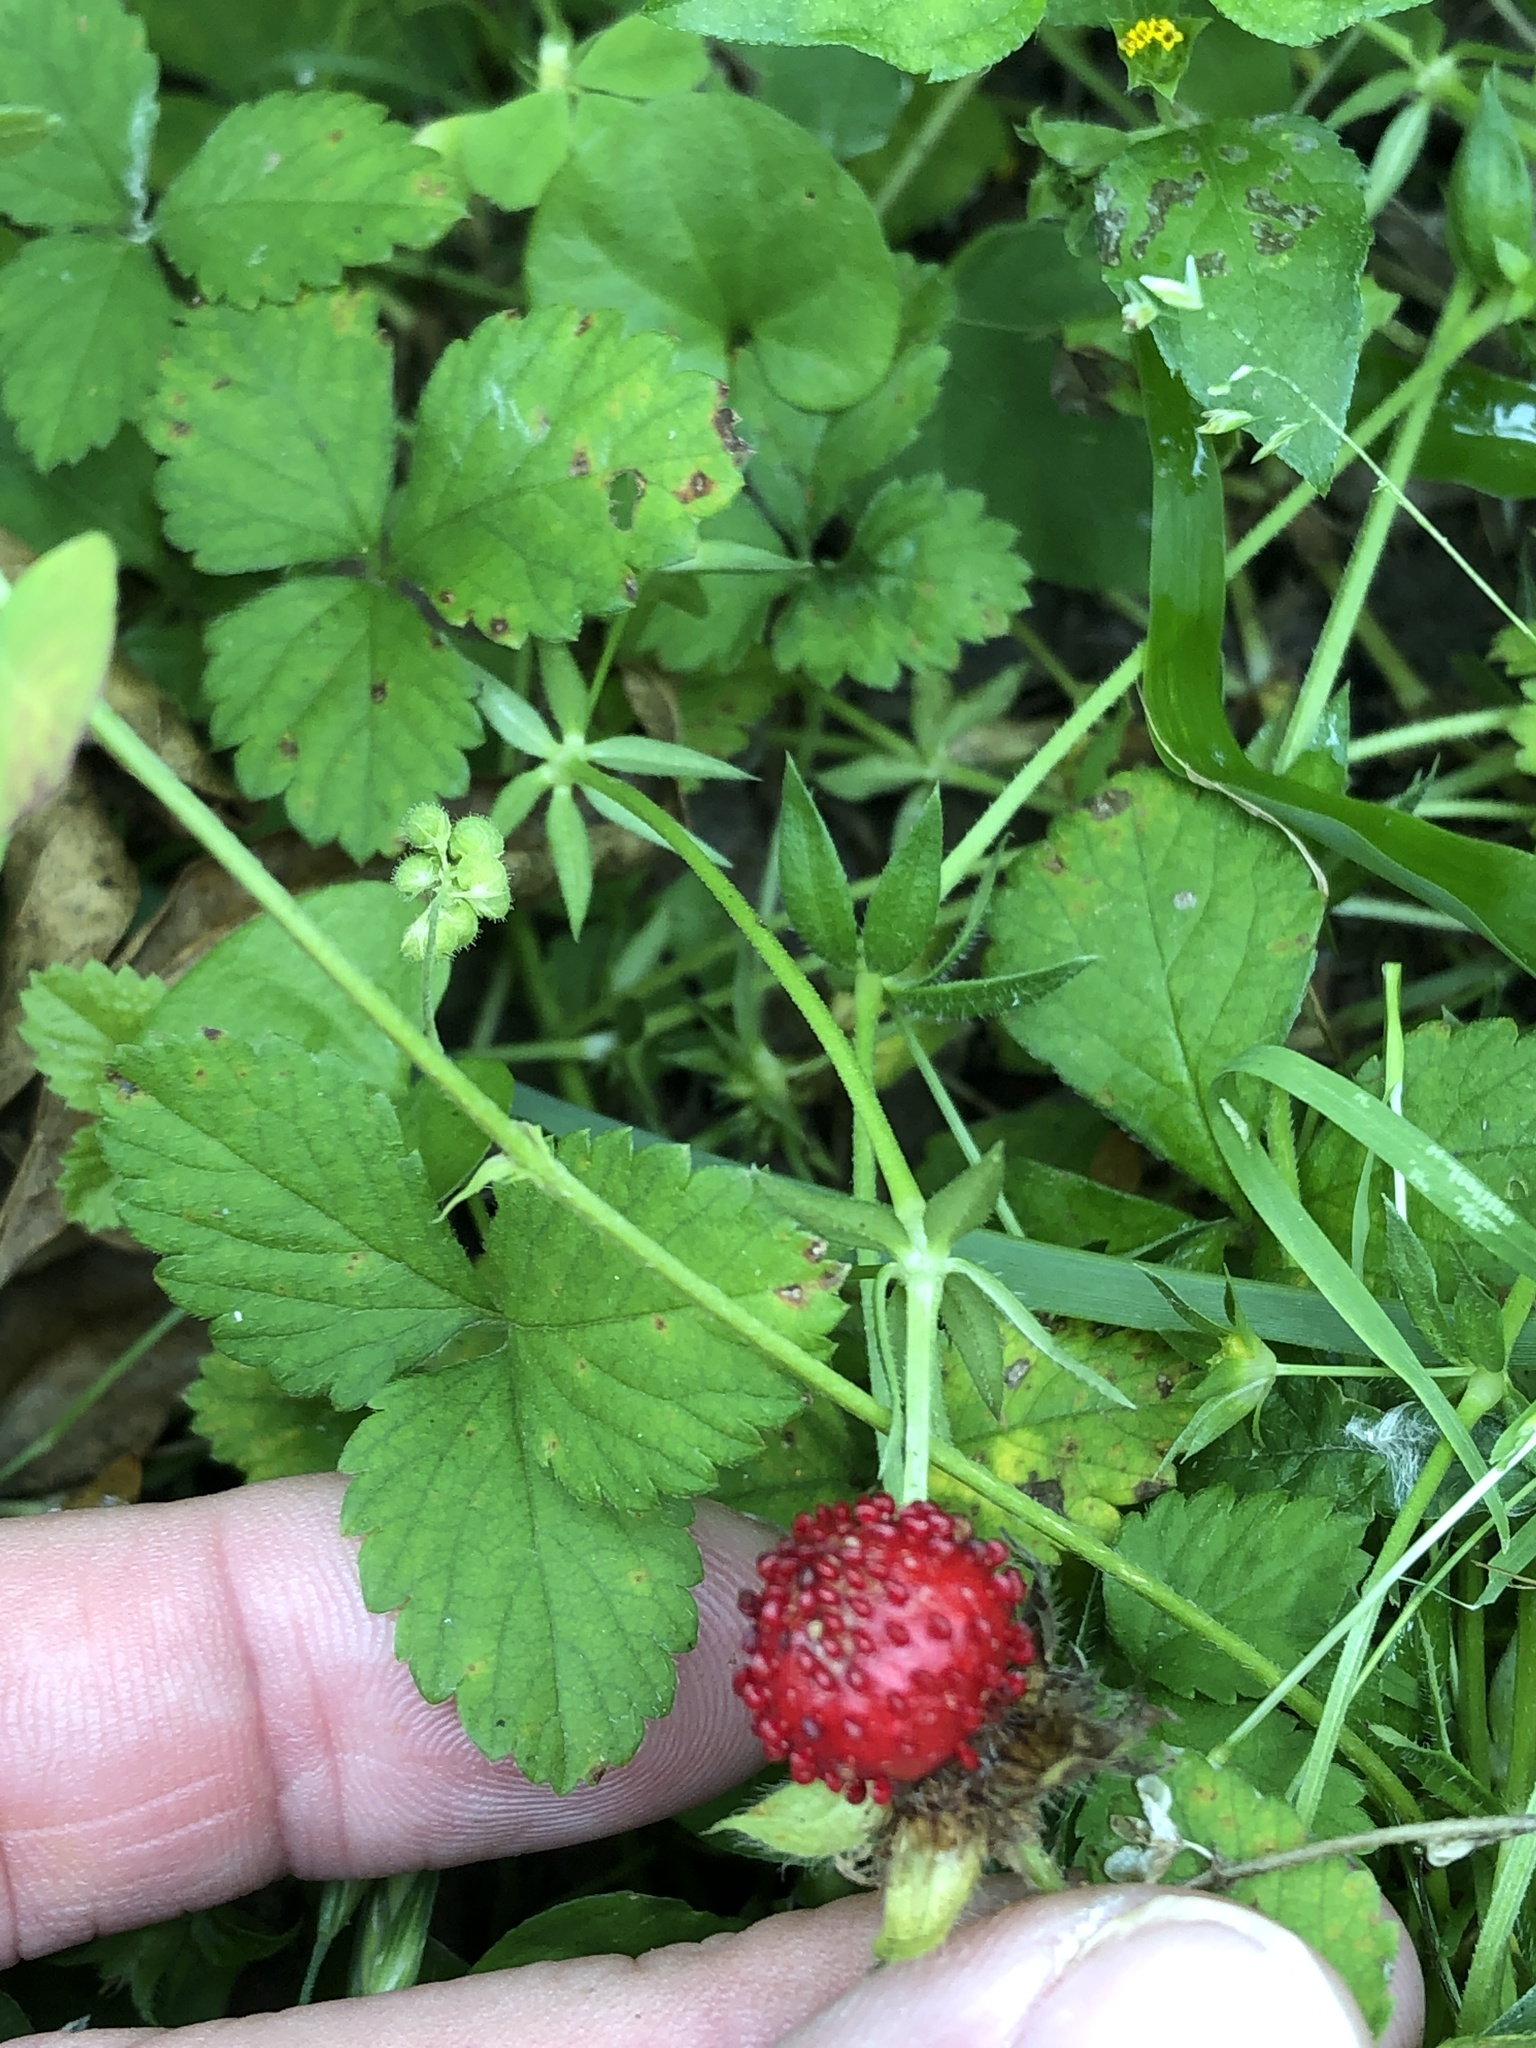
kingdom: Plantae
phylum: Tracheophyta
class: Magnoliopsida
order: Rosales
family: Rosaceae
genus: Potentilla
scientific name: Potentilla indica
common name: Yellow-flowered strawberry
